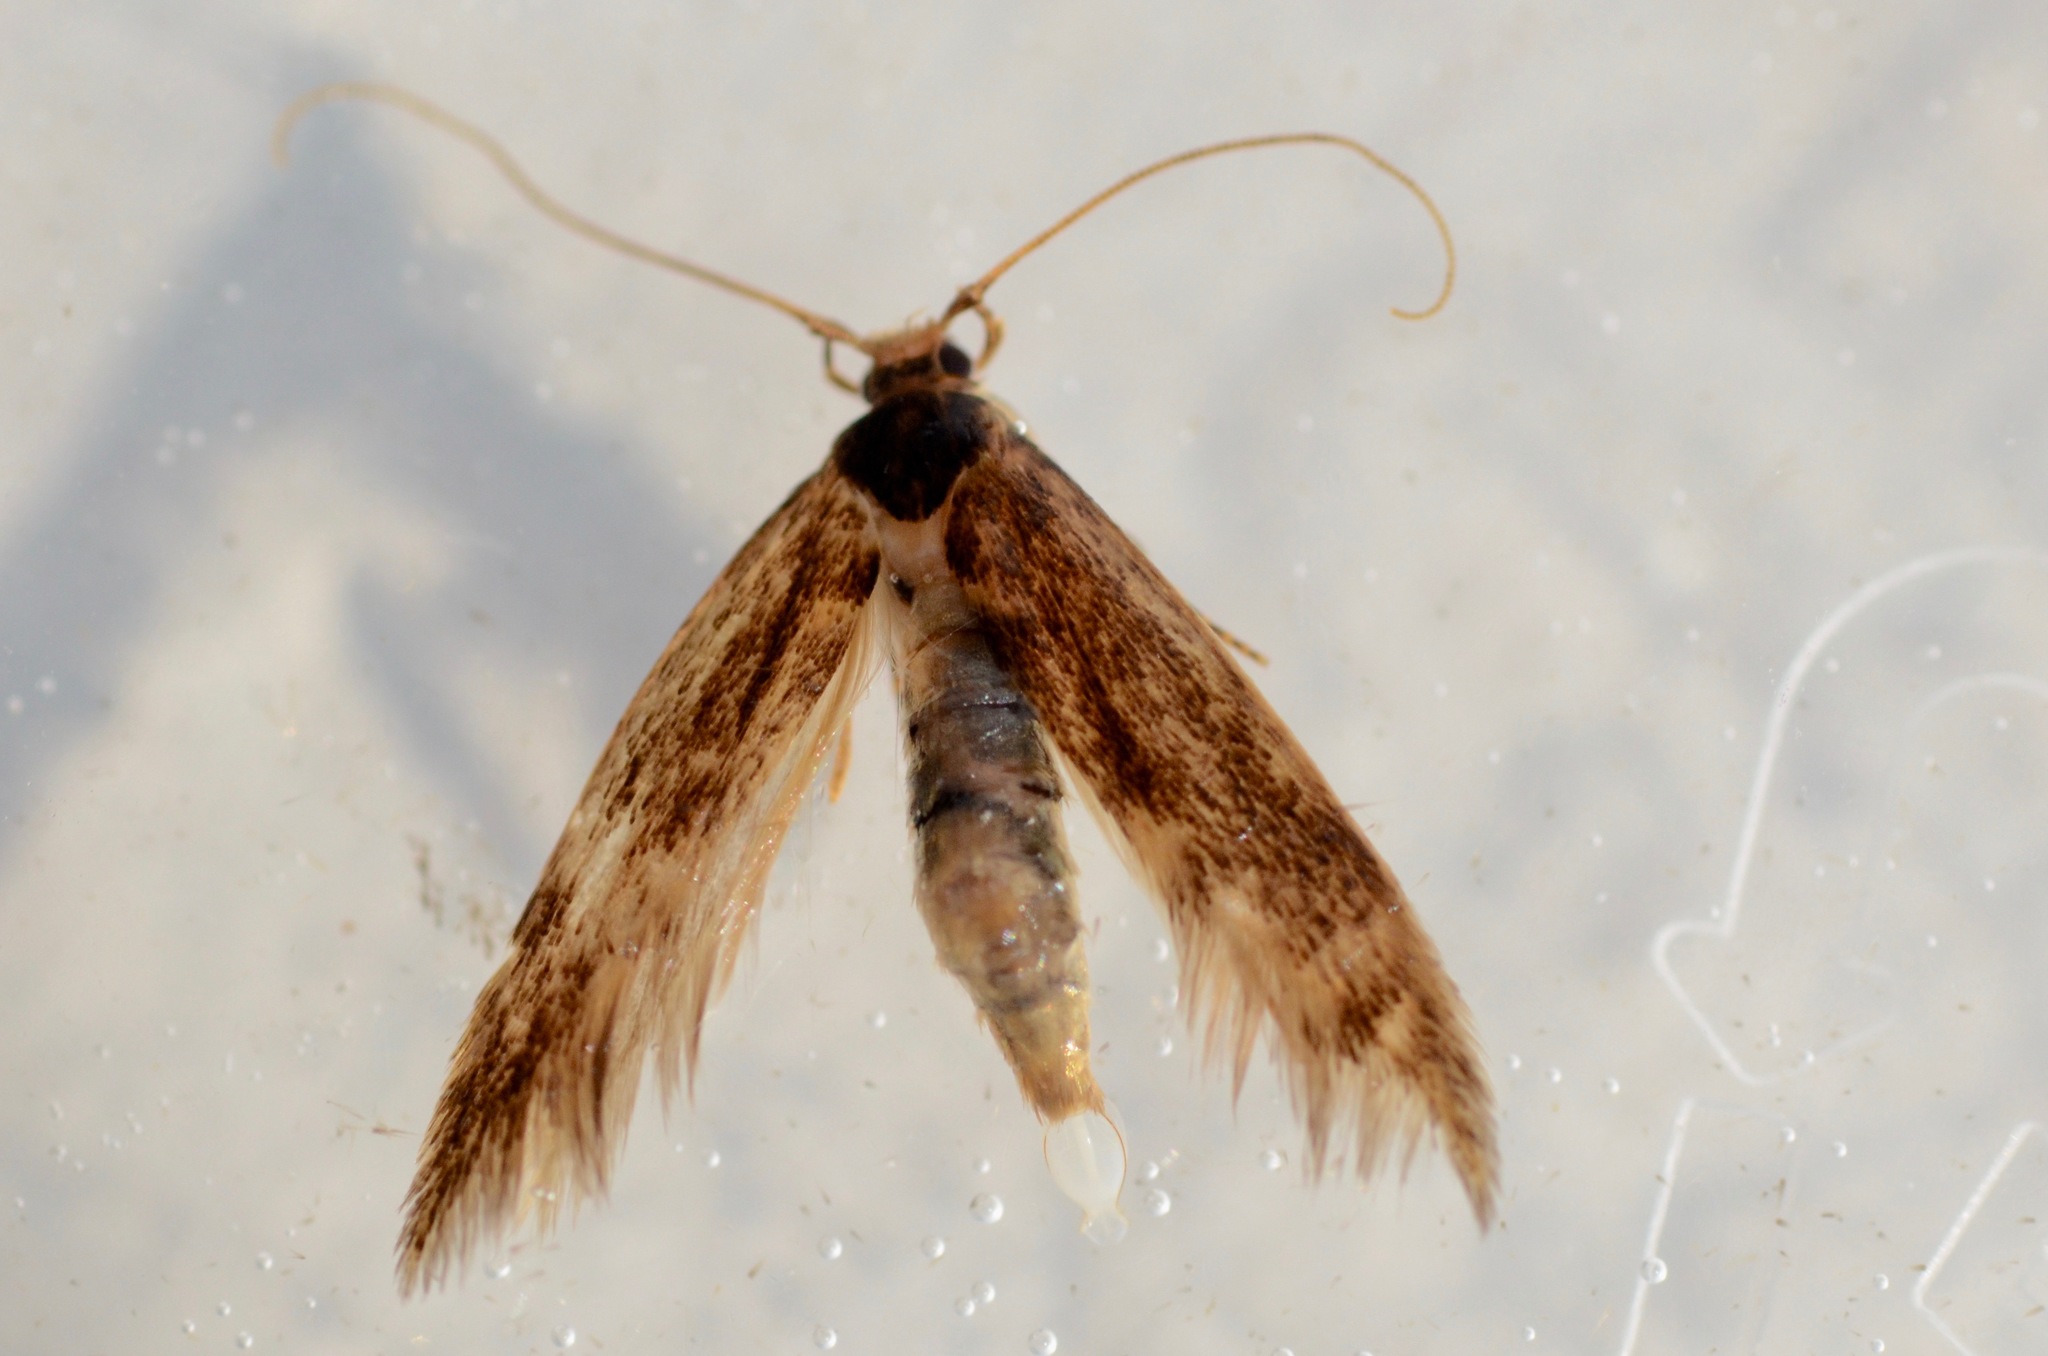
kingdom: Animalia
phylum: Arthropoda
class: Insecta
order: Lepidoptera
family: Tineidae
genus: Opogona
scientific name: Opogona omoscopa
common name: Moth
